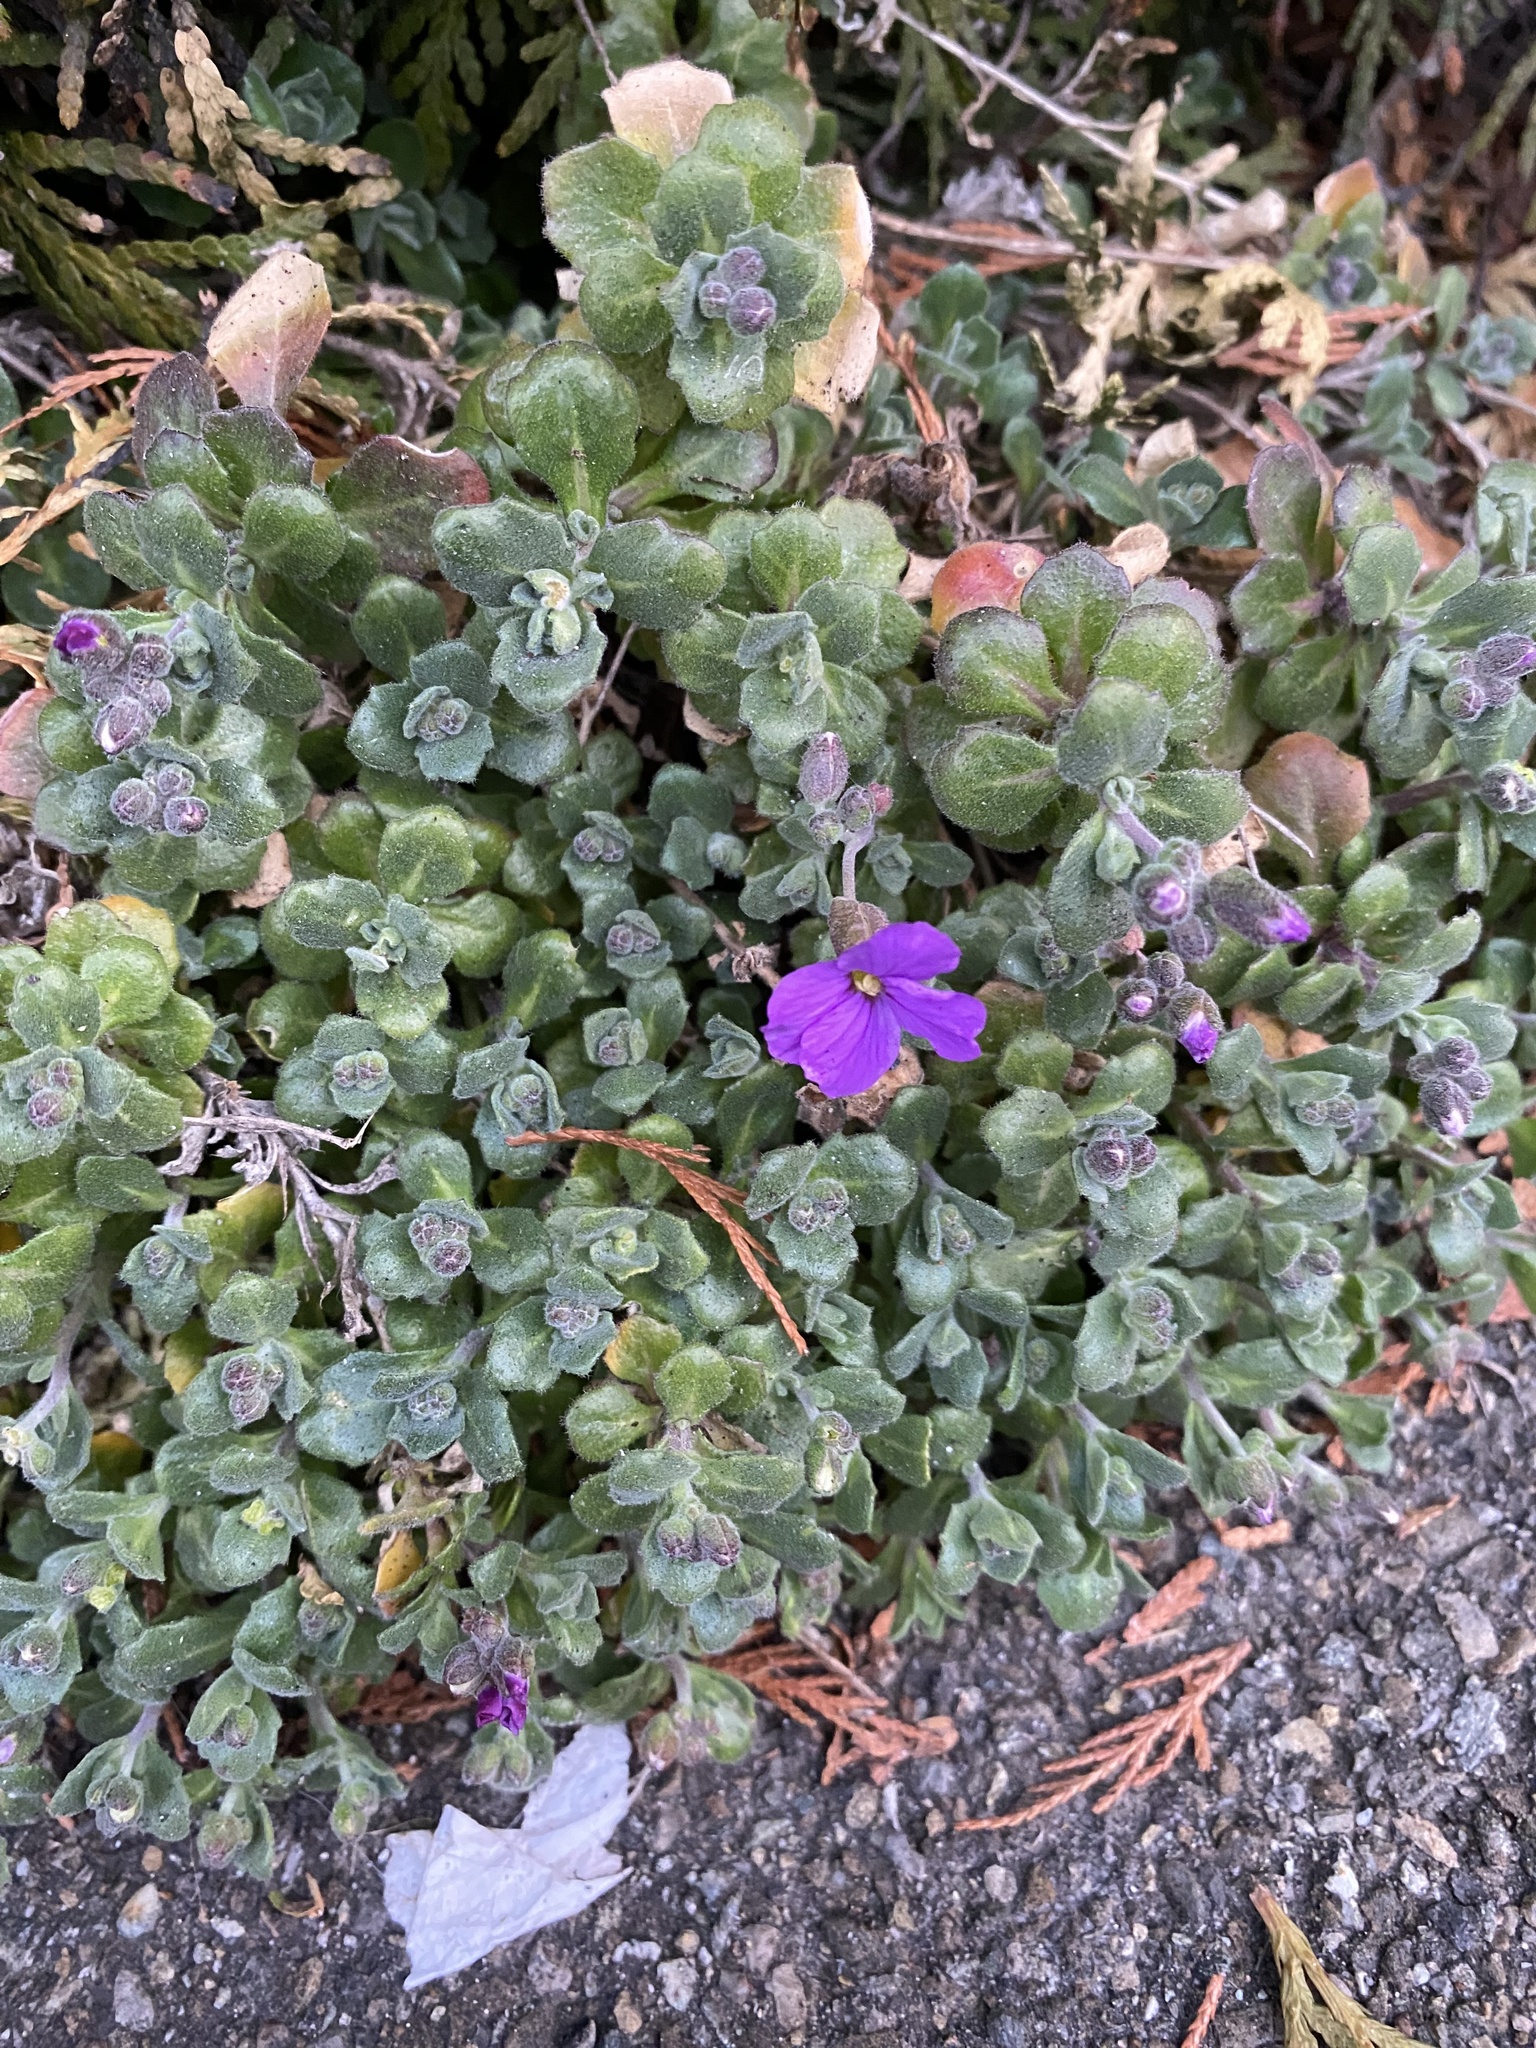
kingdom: Plantae
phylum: Tracheophyta
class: Magnoliopsida
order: Brassicales
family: Brassicaceae
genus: Aubrieta
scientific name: Aubrieta deltoidea
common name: Aubretia
